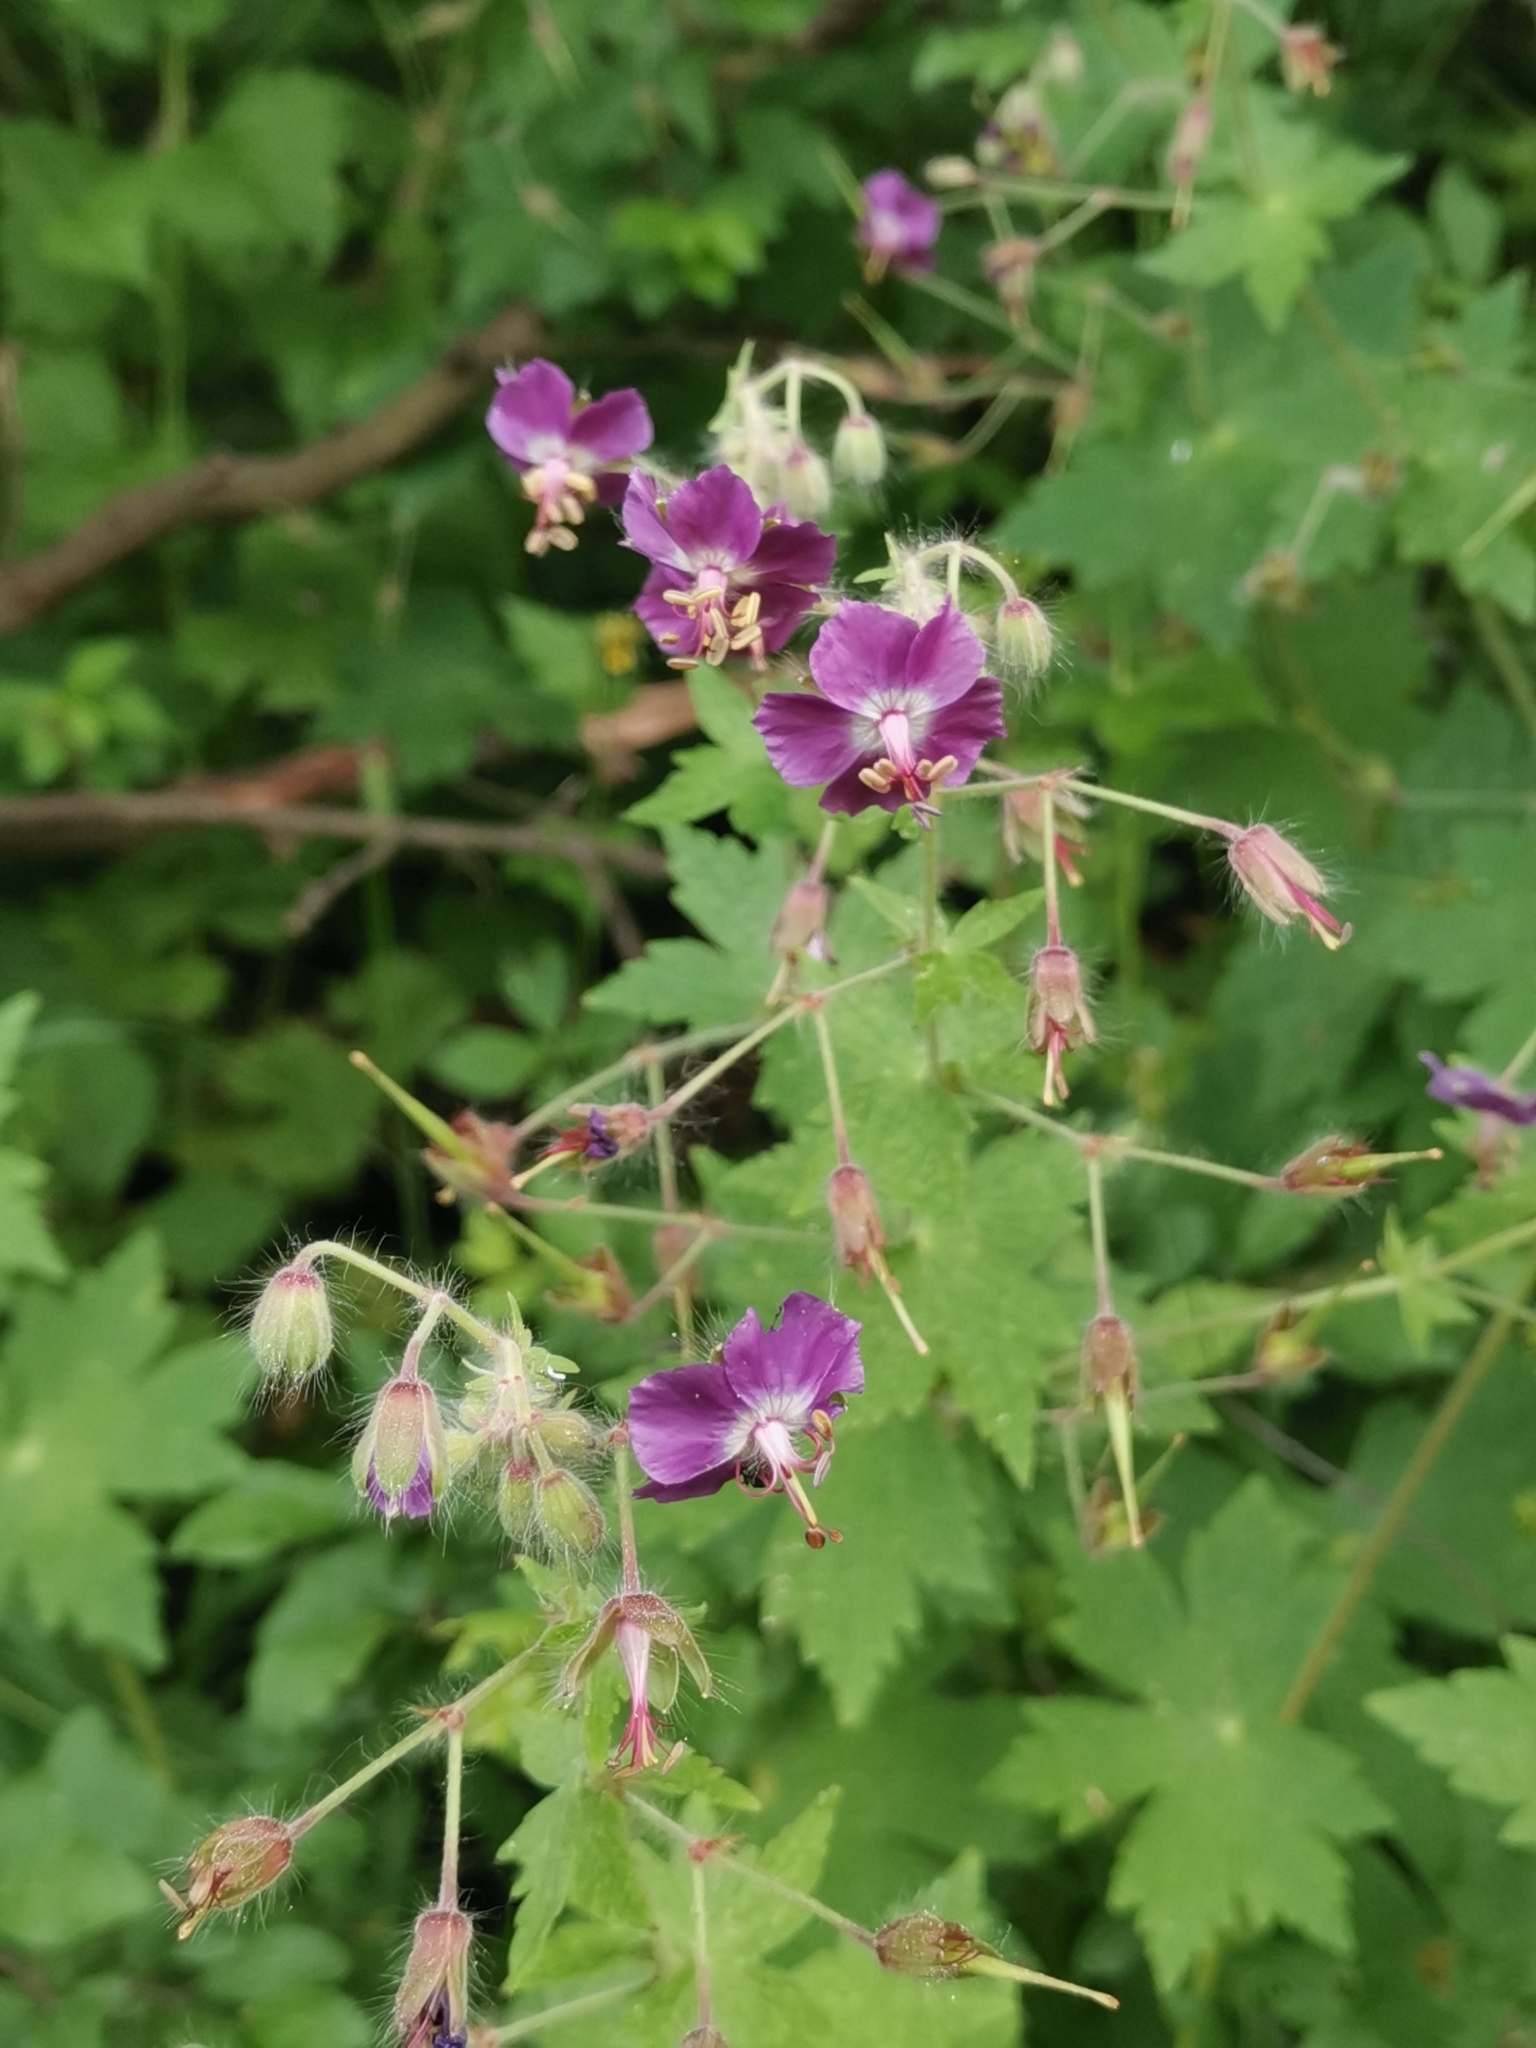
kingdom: Plantae
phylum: Tracheophyta
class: Magnoliopsida
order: Geraniales
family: Geraniaceae
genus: Geranium
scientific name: Geranium phaeum
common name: Dusky crane's-bill
